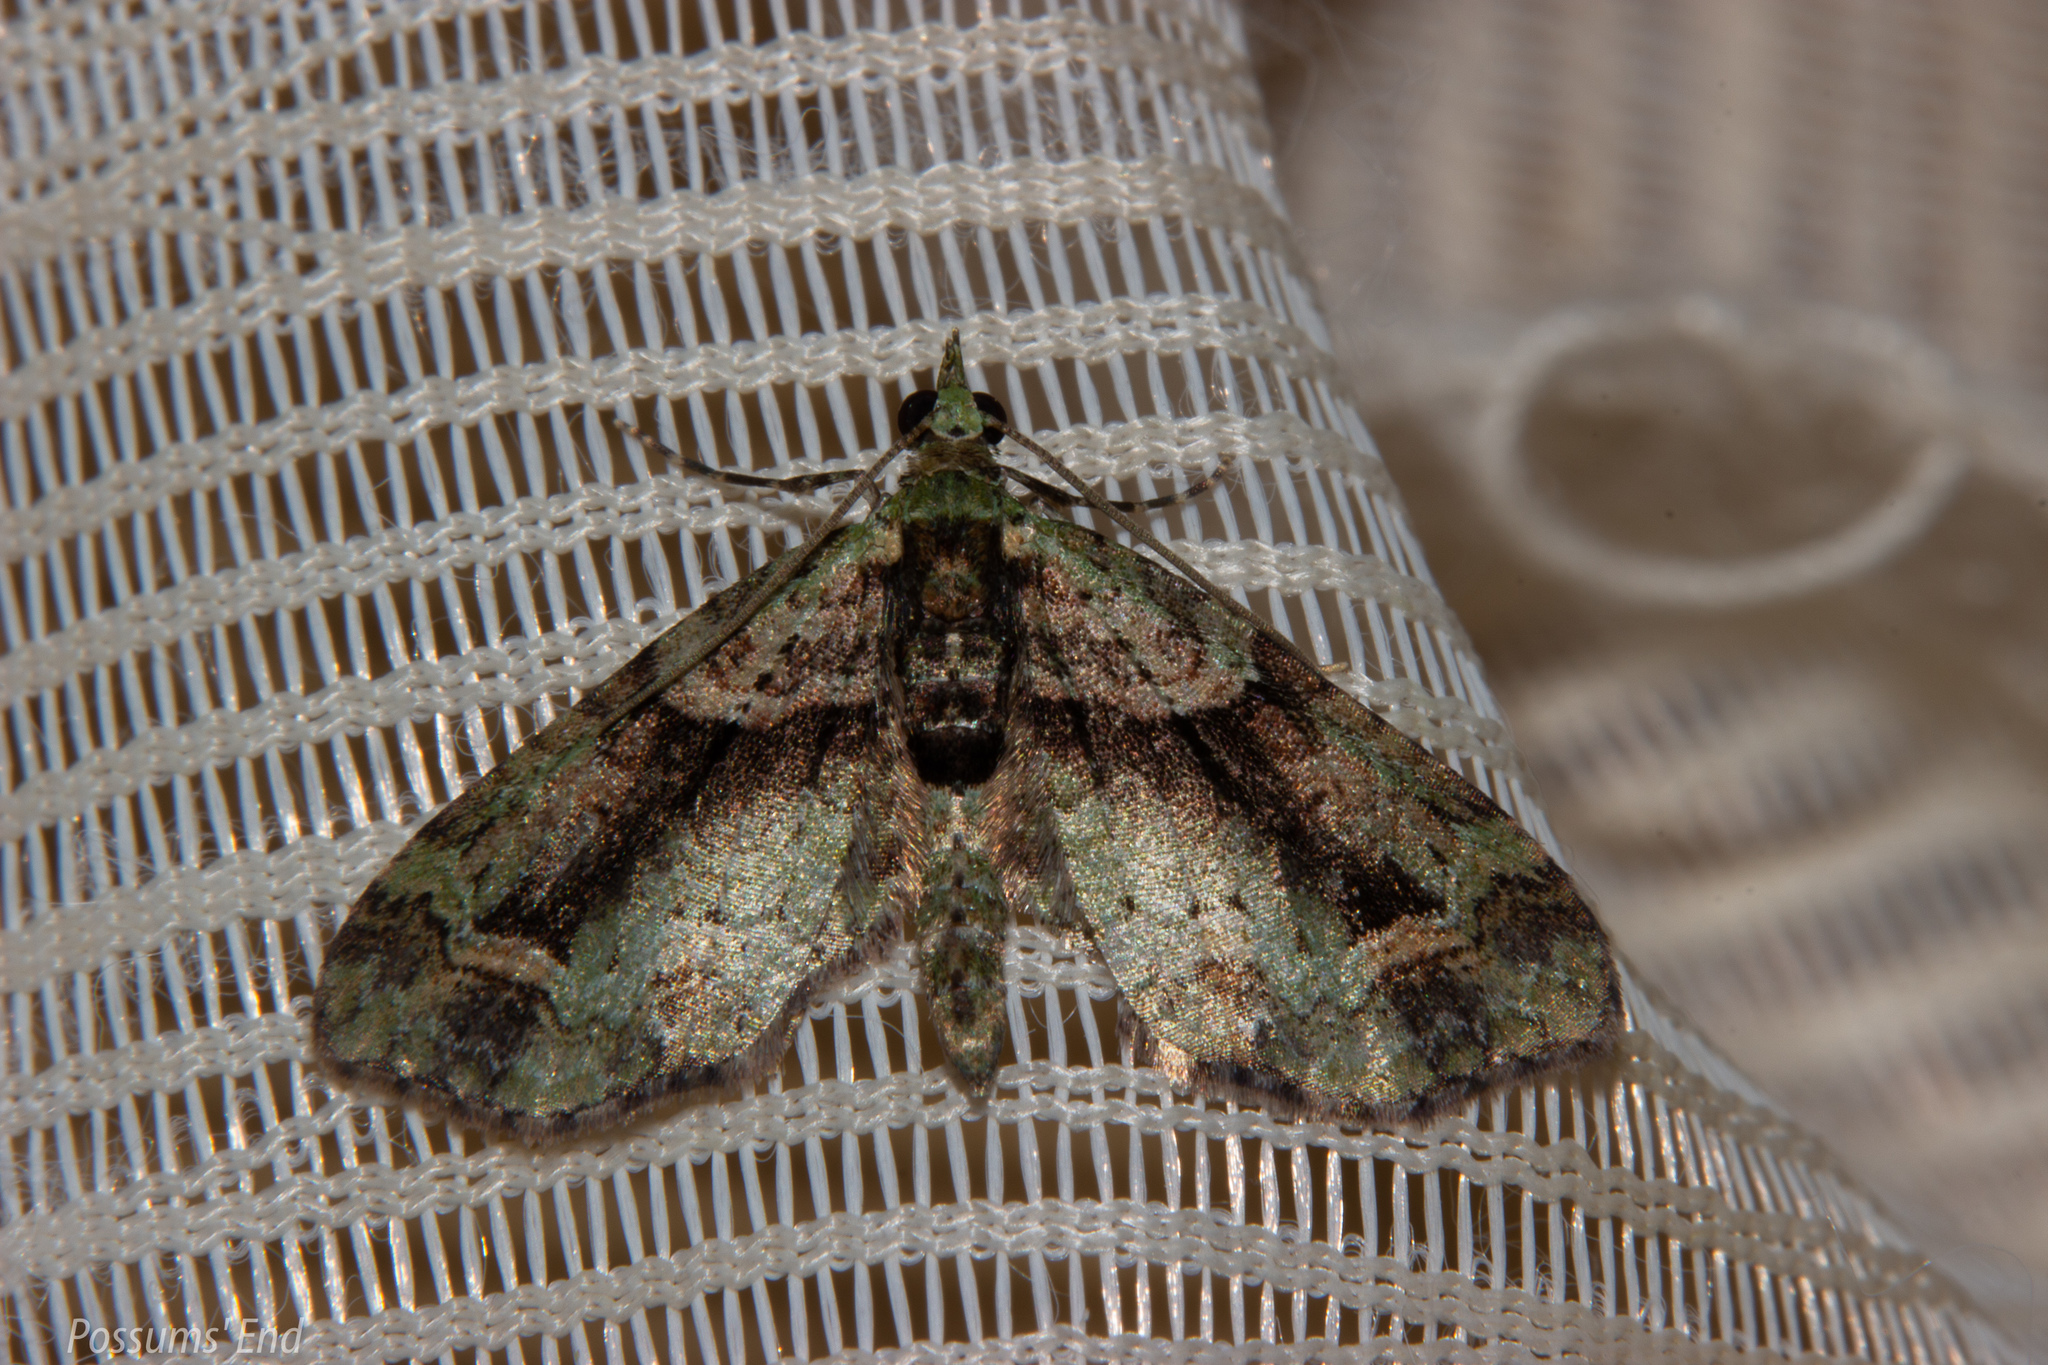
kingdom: Animalia
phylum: Arthropoda
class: Insecta
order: Lepidoptera
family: Geometridae
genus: Pasiphila
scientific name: Pasiphila suffusa
